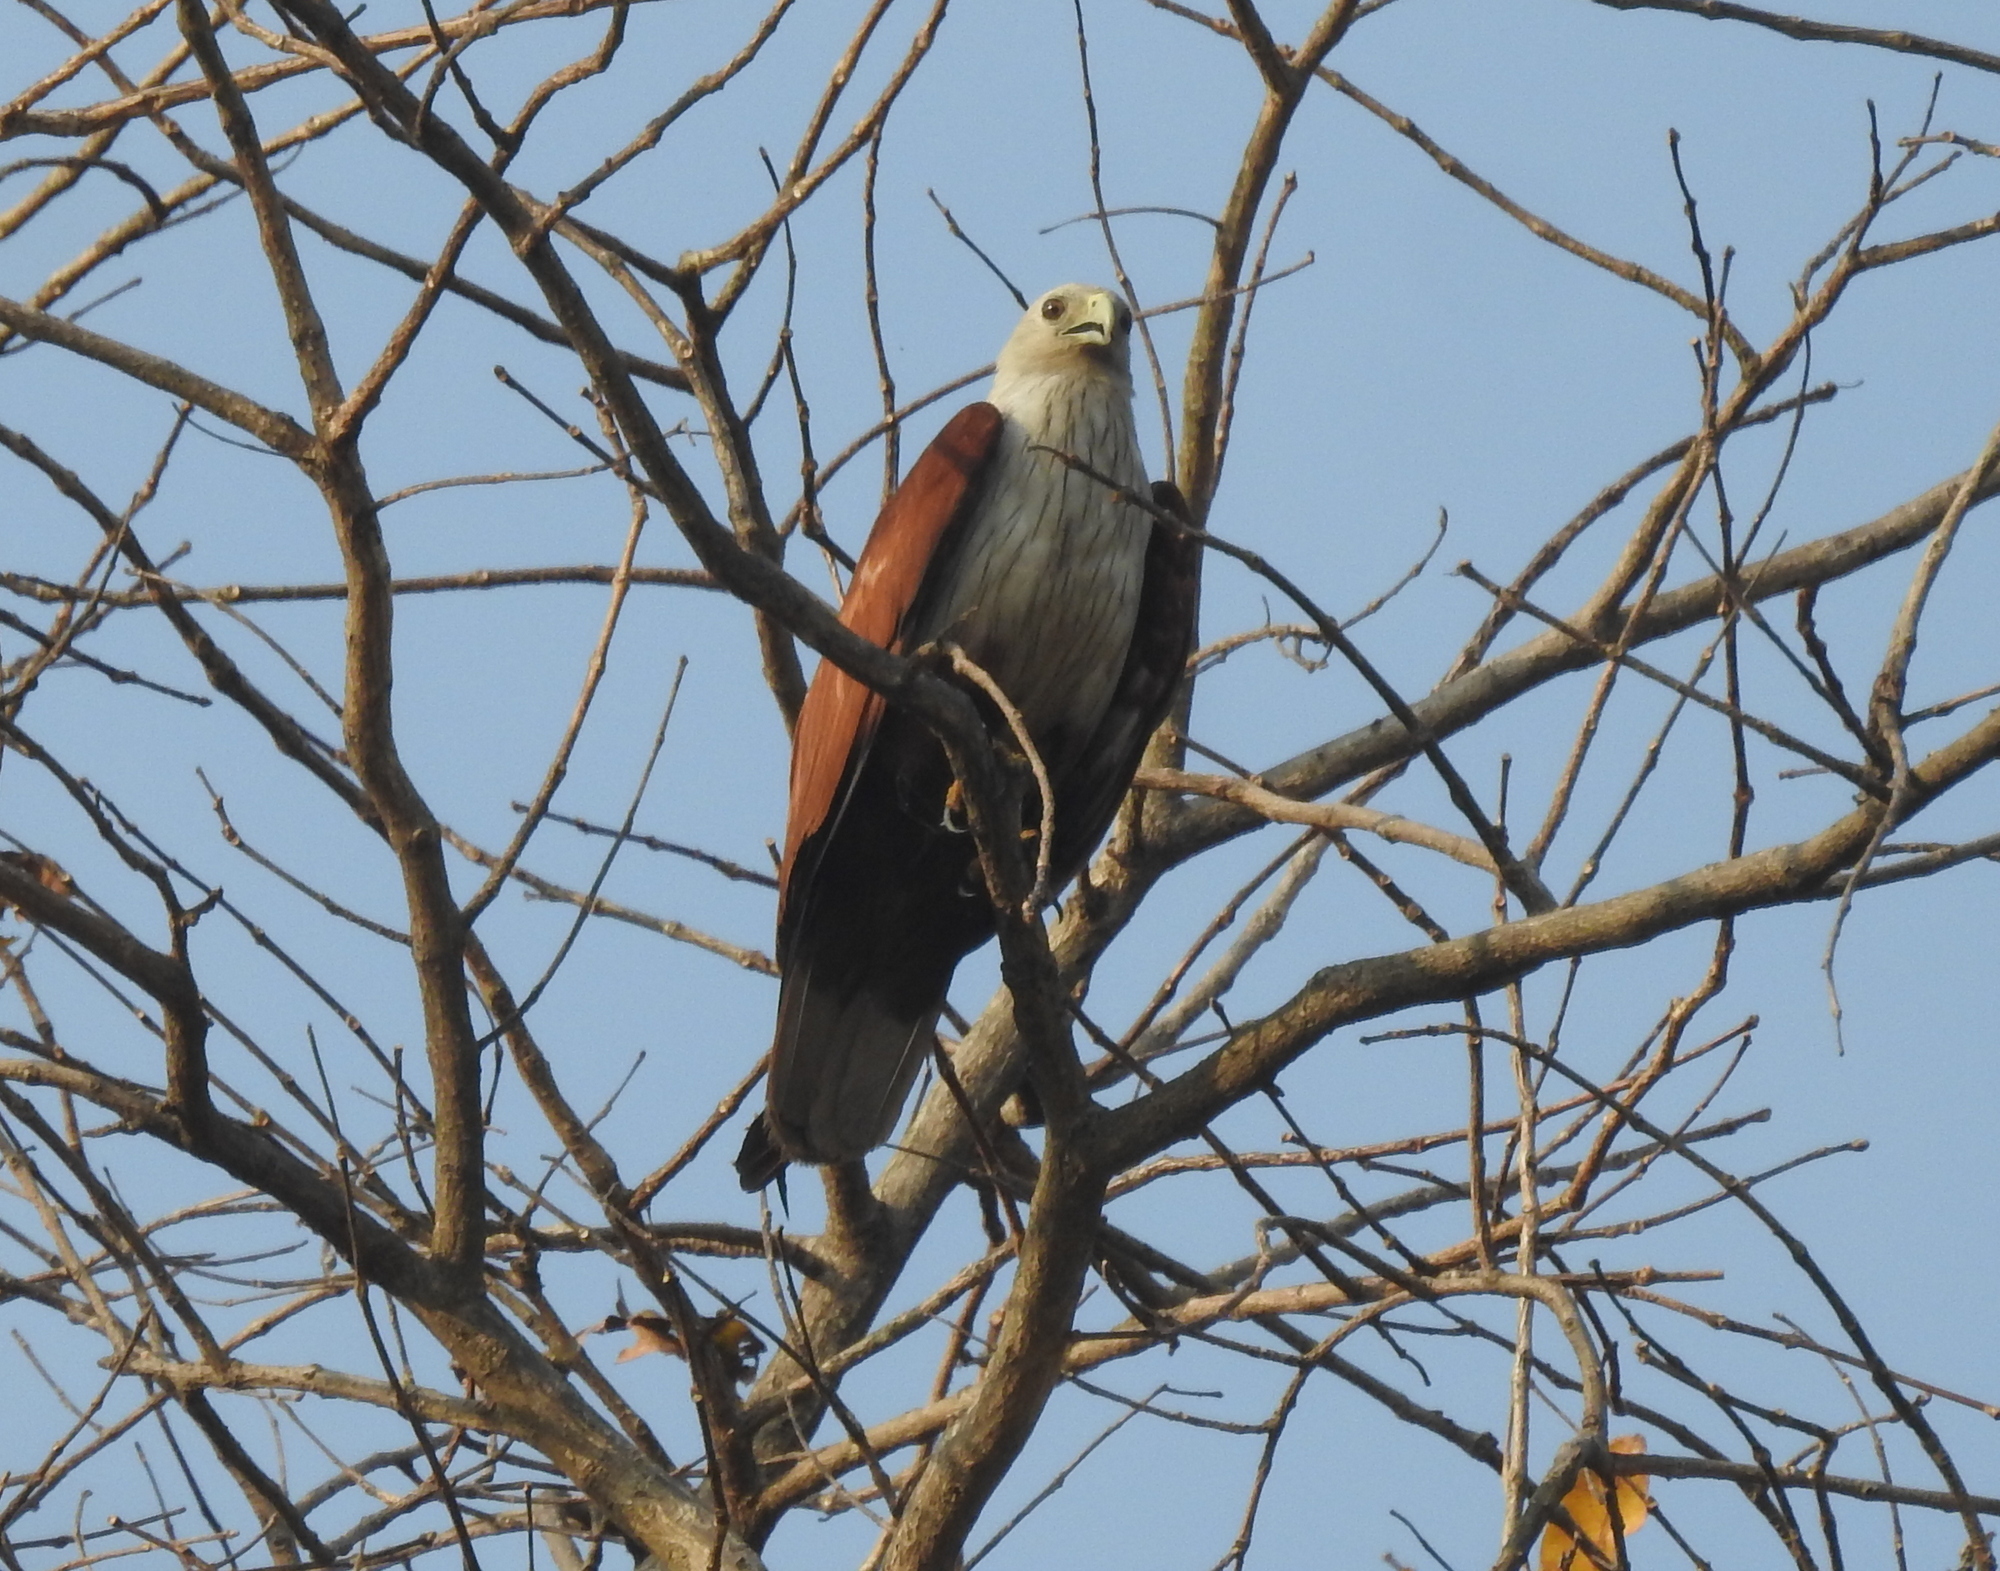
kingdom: Animalia
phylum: Chordata
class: Aves
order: Accipitriformes
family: Accipitridae
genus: Haliastur
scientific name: Haliastur indus
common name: Brahminy kite
